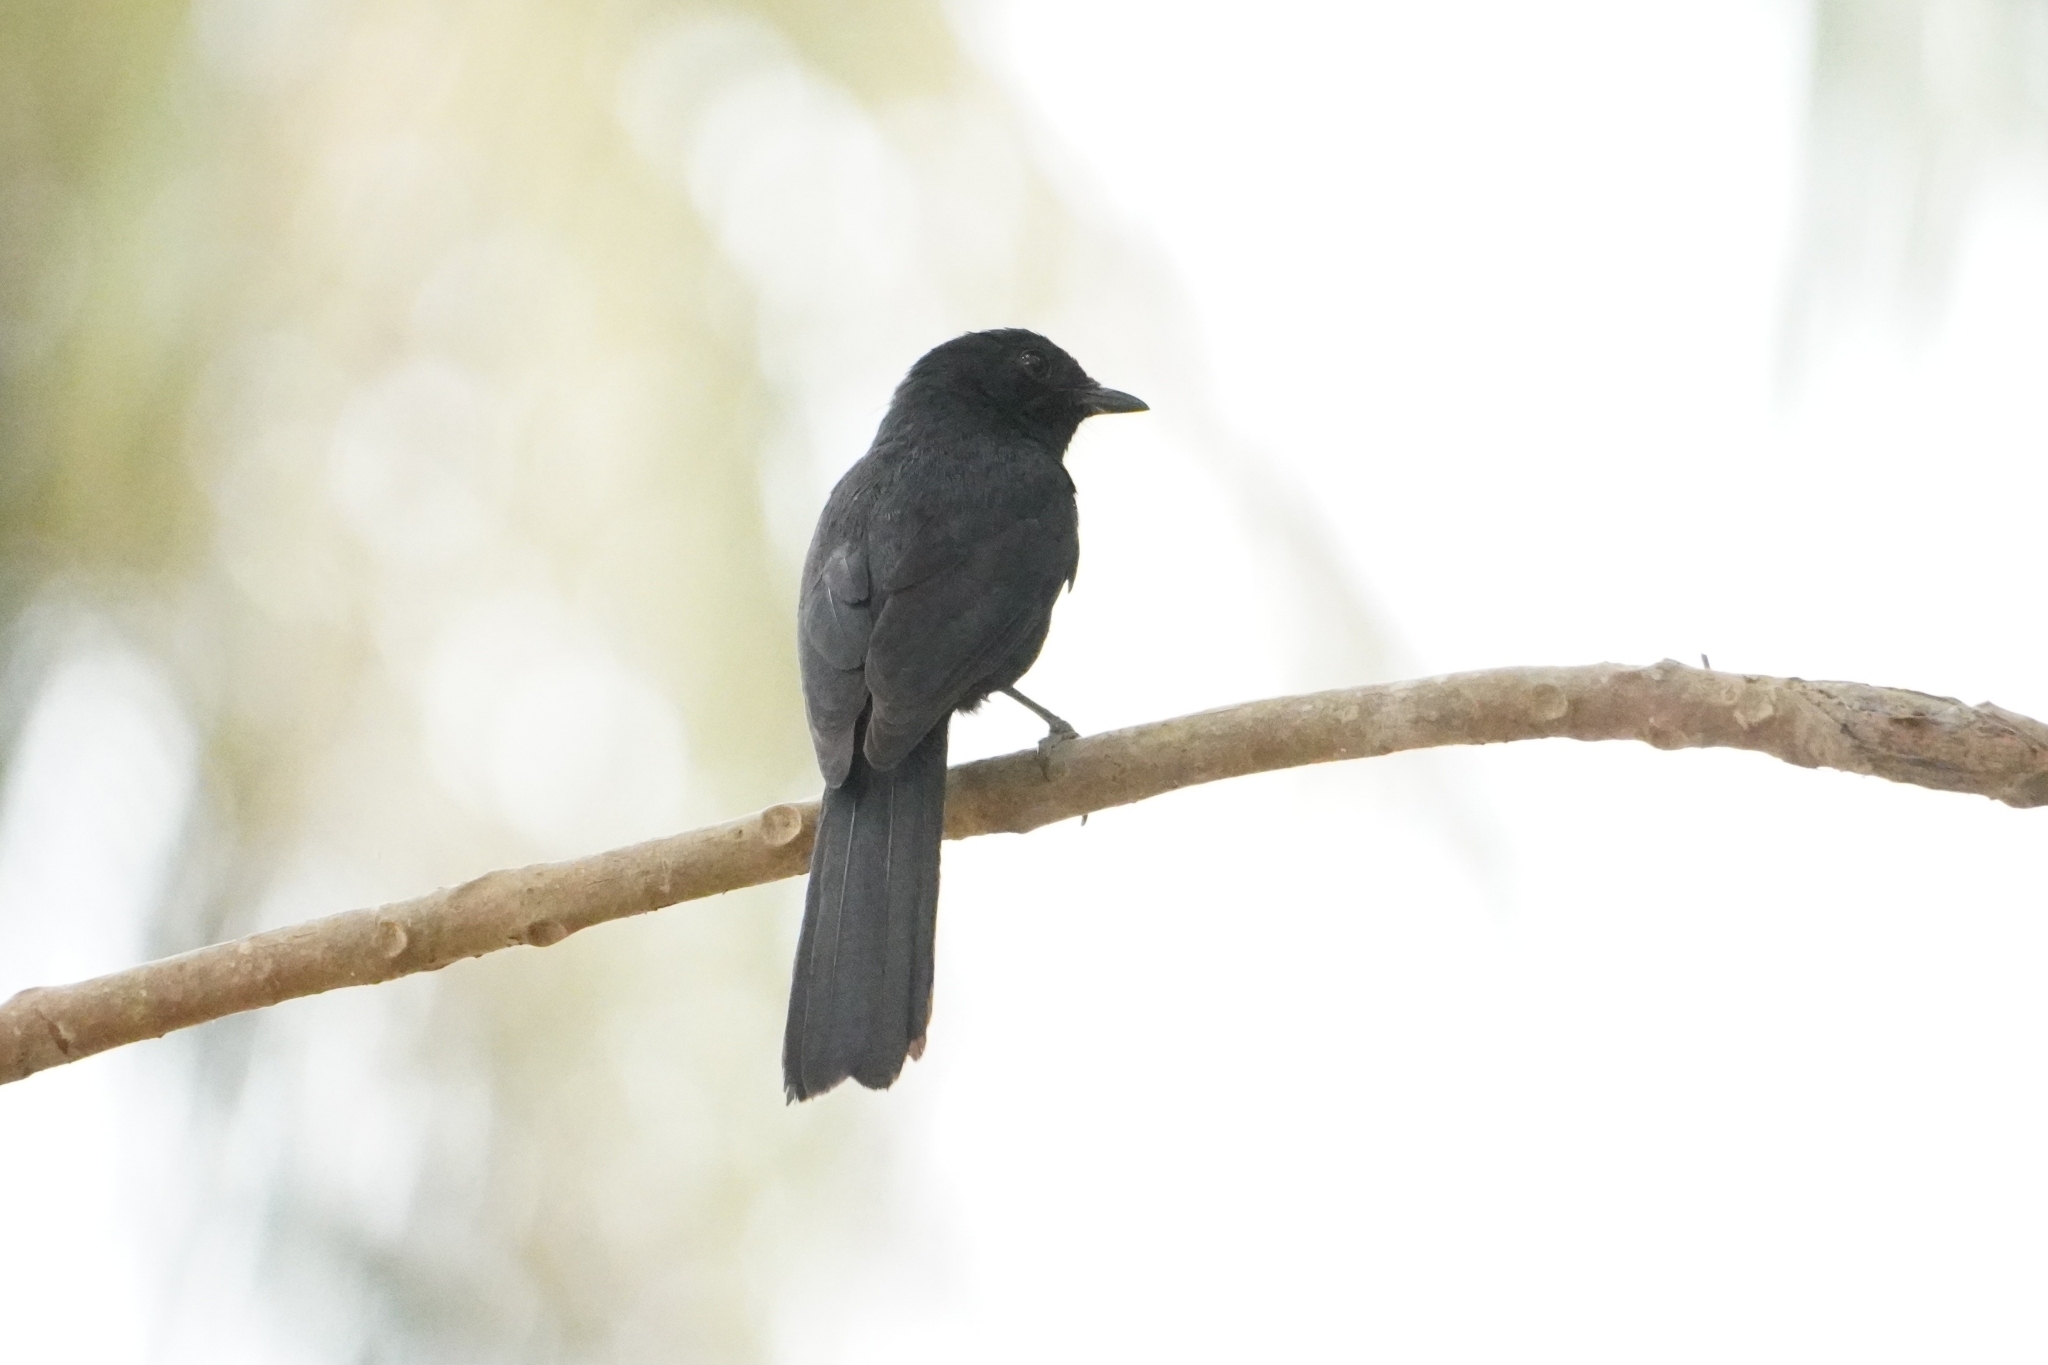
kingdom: Animalia
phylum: Chordata
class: Aves
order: Passeriformes
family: Muscicapidae
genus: Melaenornis
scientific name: Melaenornis edolioides
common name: Northern black flycatcher
